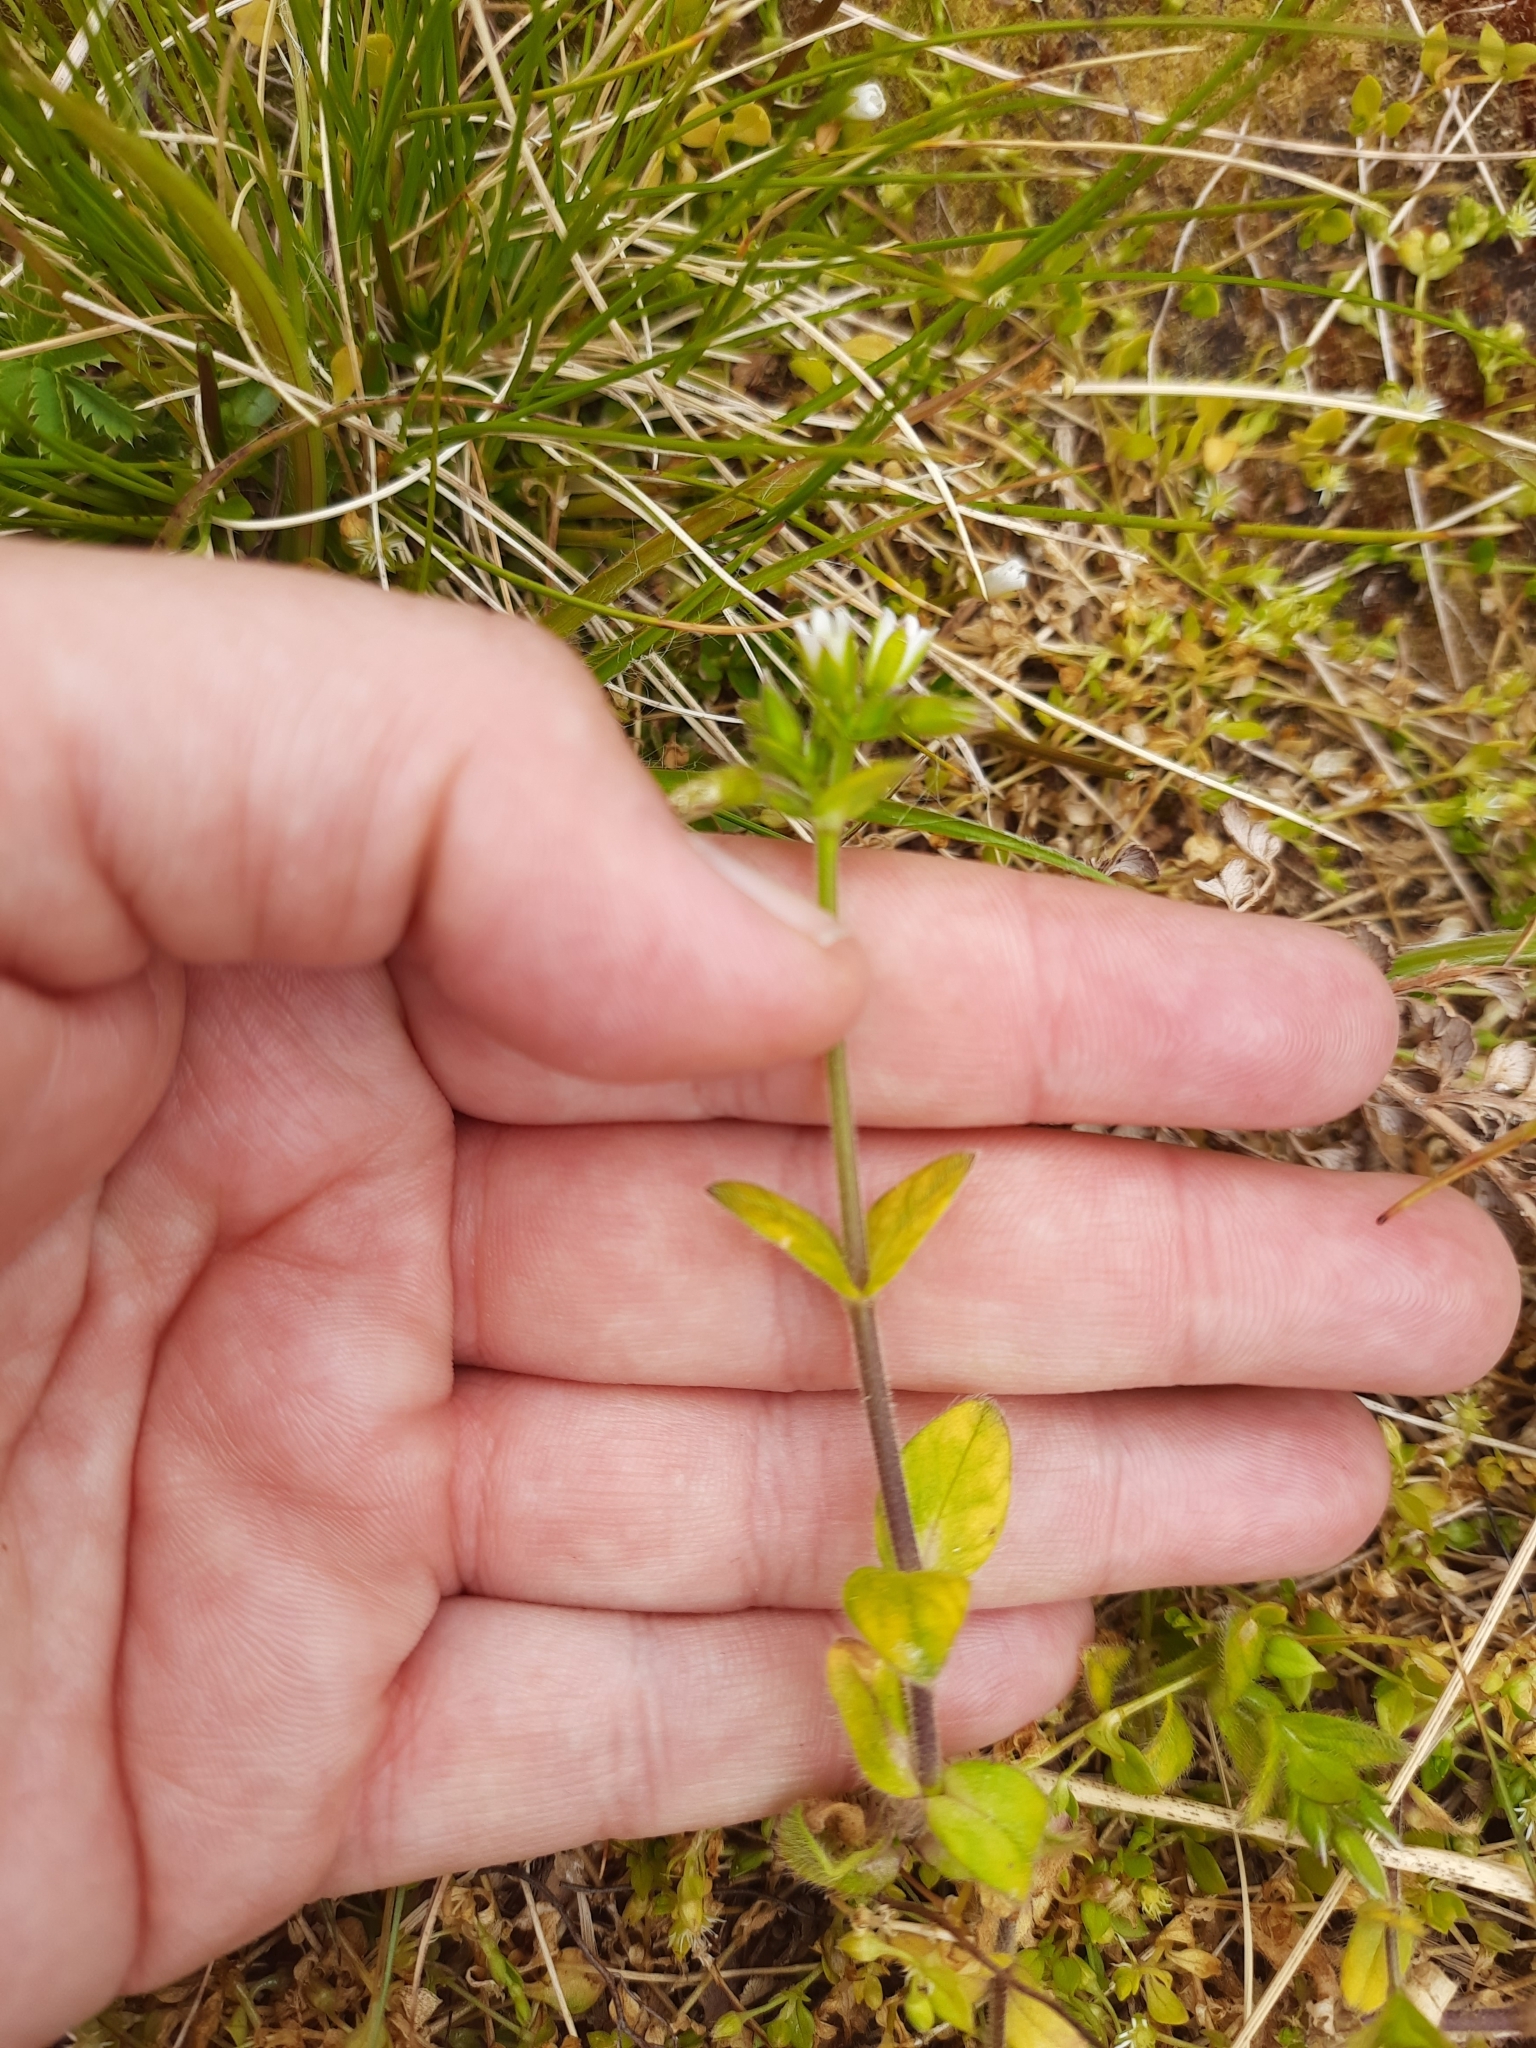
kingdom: Plantae
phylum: Tracheophyta
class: Magnoliopsida
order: Caryophyllales
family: Caryophyllaceae
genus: Cerastium
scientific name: Cerastium fontanum
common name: Common mouse-ear
